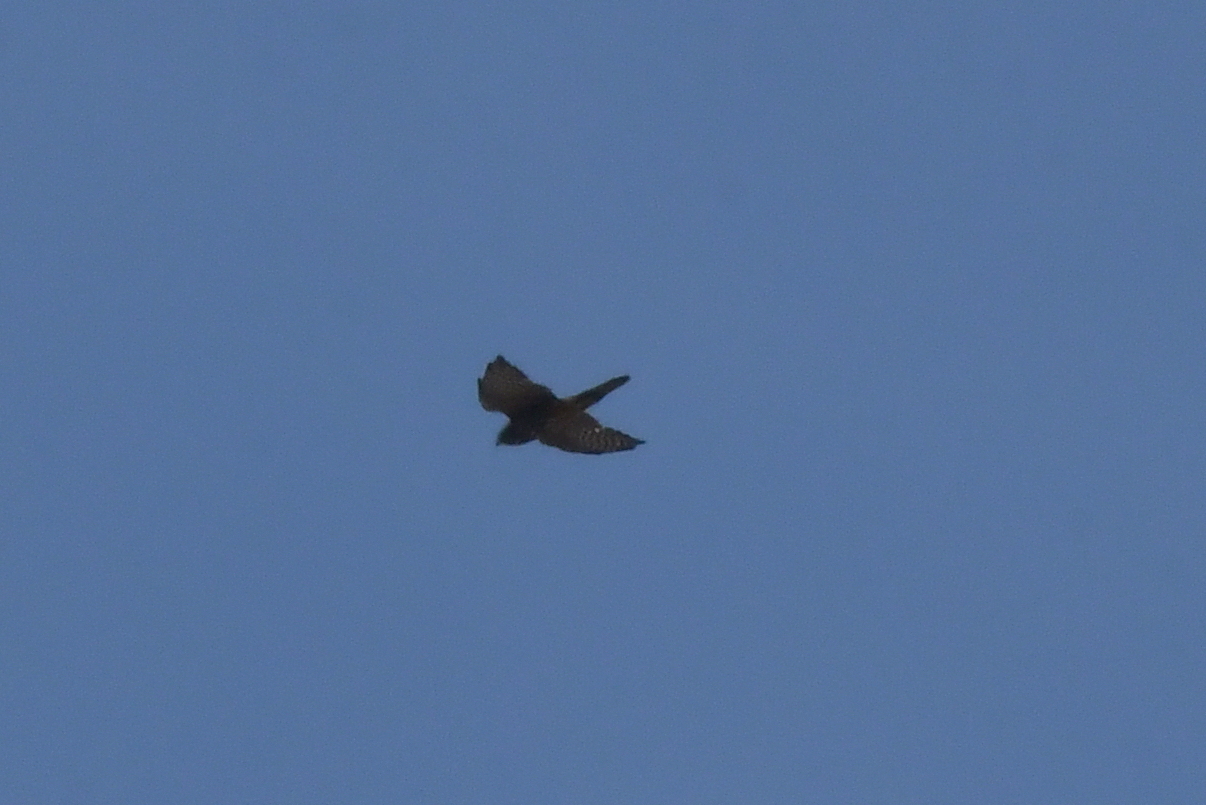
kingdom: Animalia
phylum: Chordata
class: Aves
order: Falconiformes
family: Falconidae
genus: Falco
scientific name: Falco novaeseelandiae
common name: New zealand falcon
